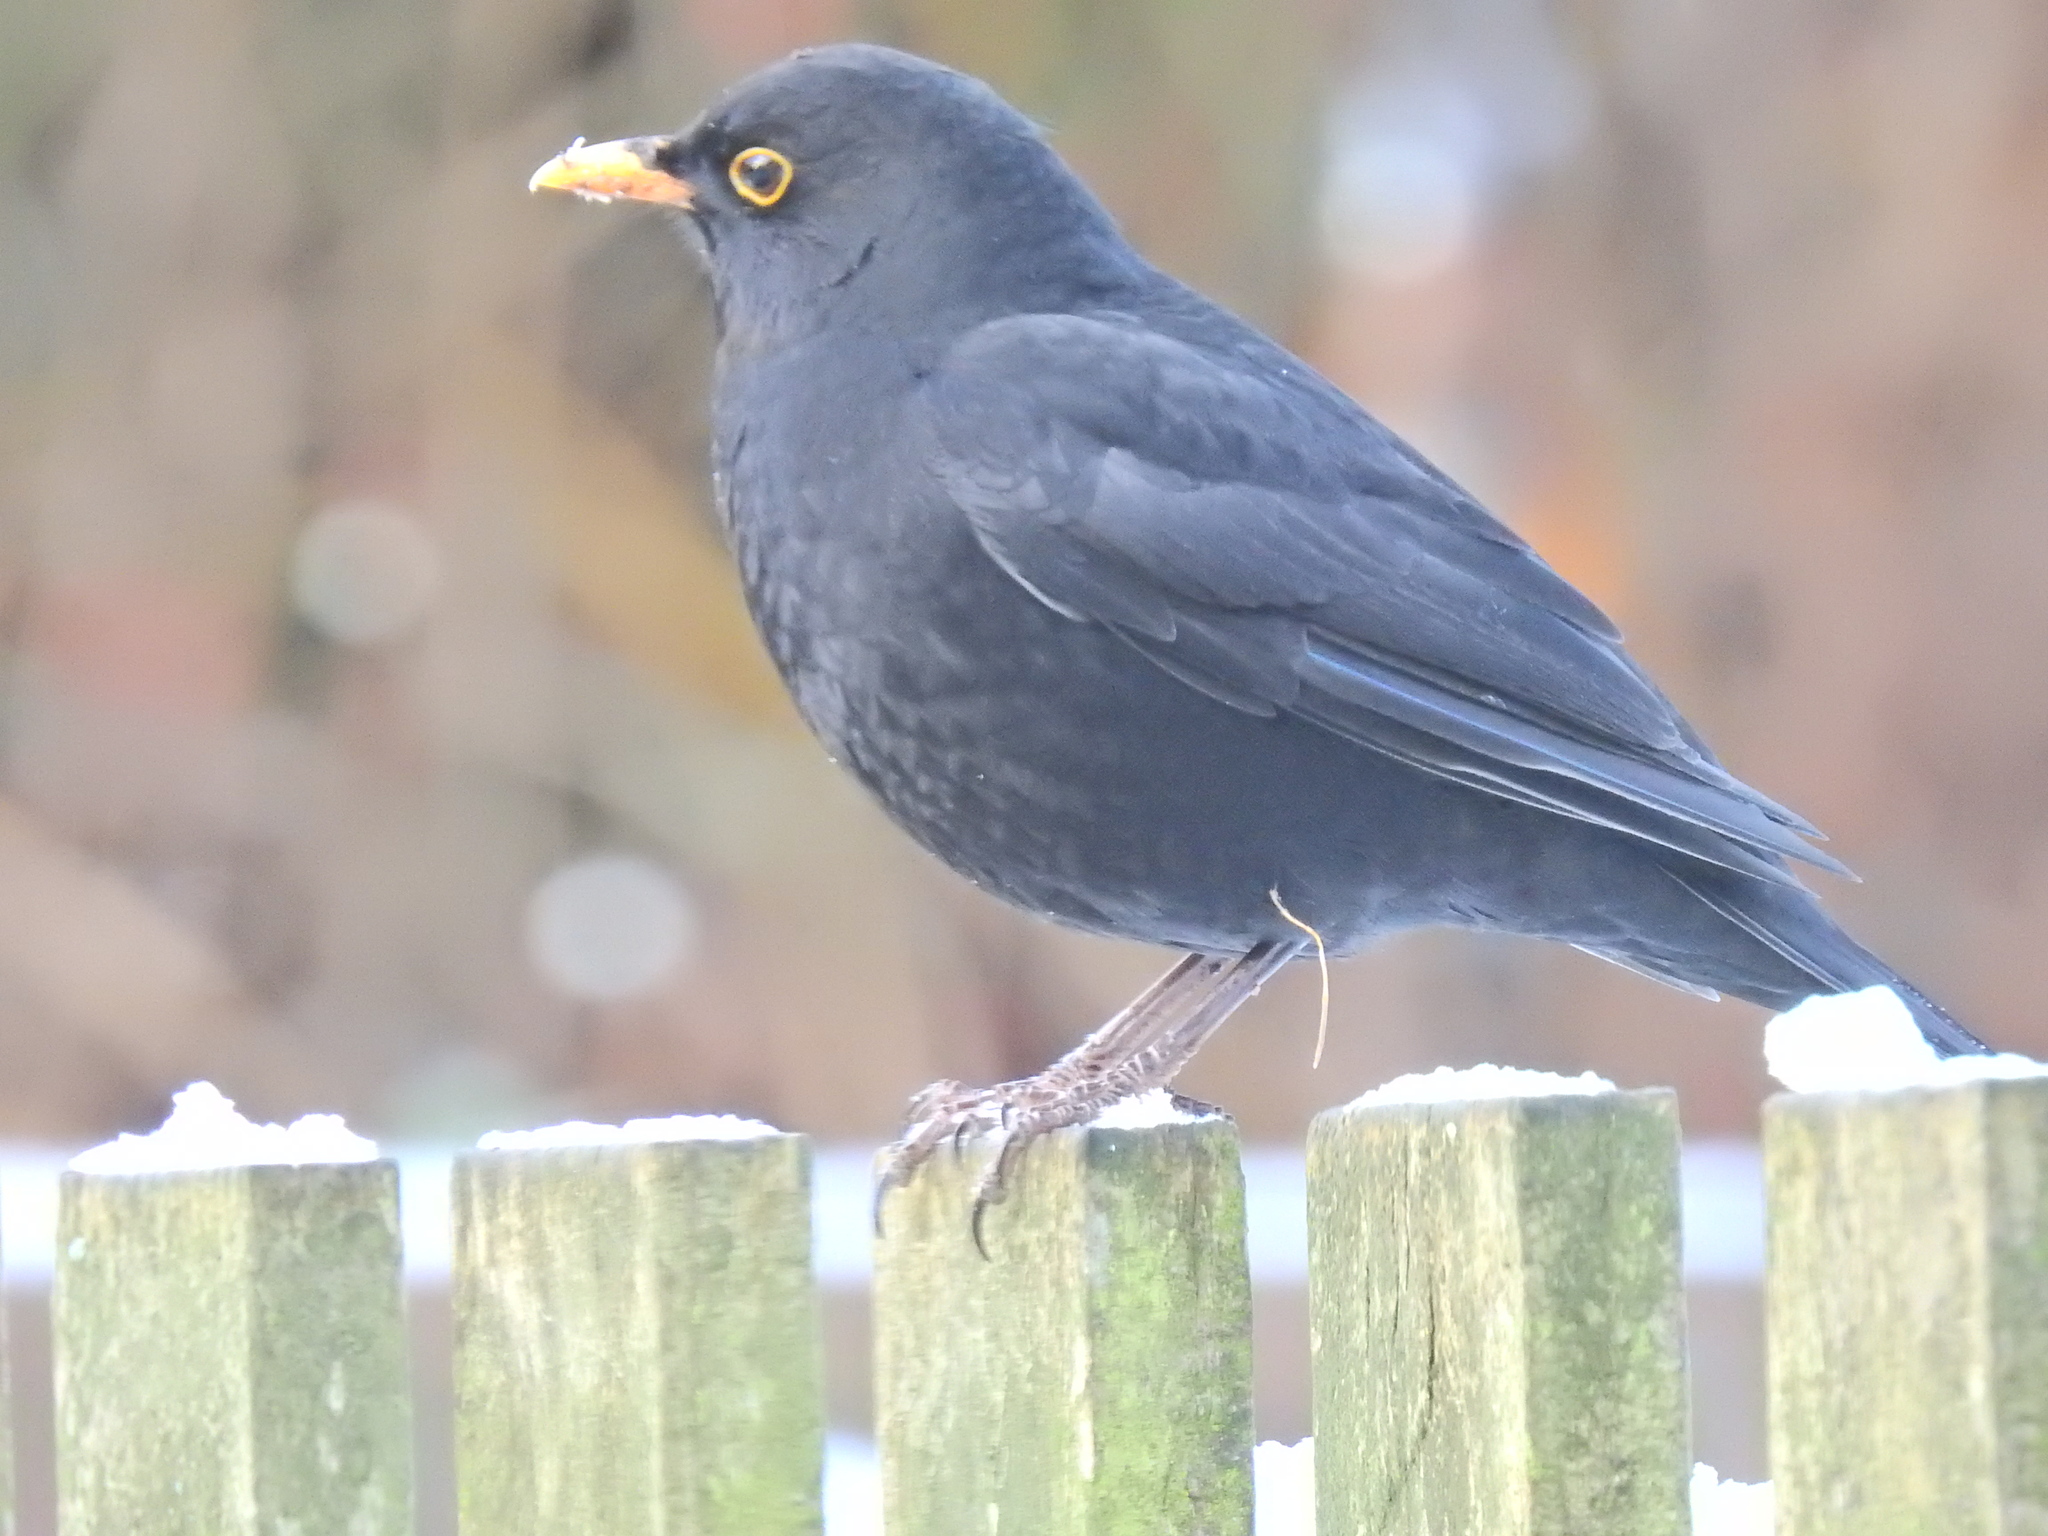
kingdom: Animalia
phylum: Chordata
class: Aves
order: Passeriformes
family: Turdidae
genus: Turdus
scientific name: Turdus merula
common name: Common blackbird
